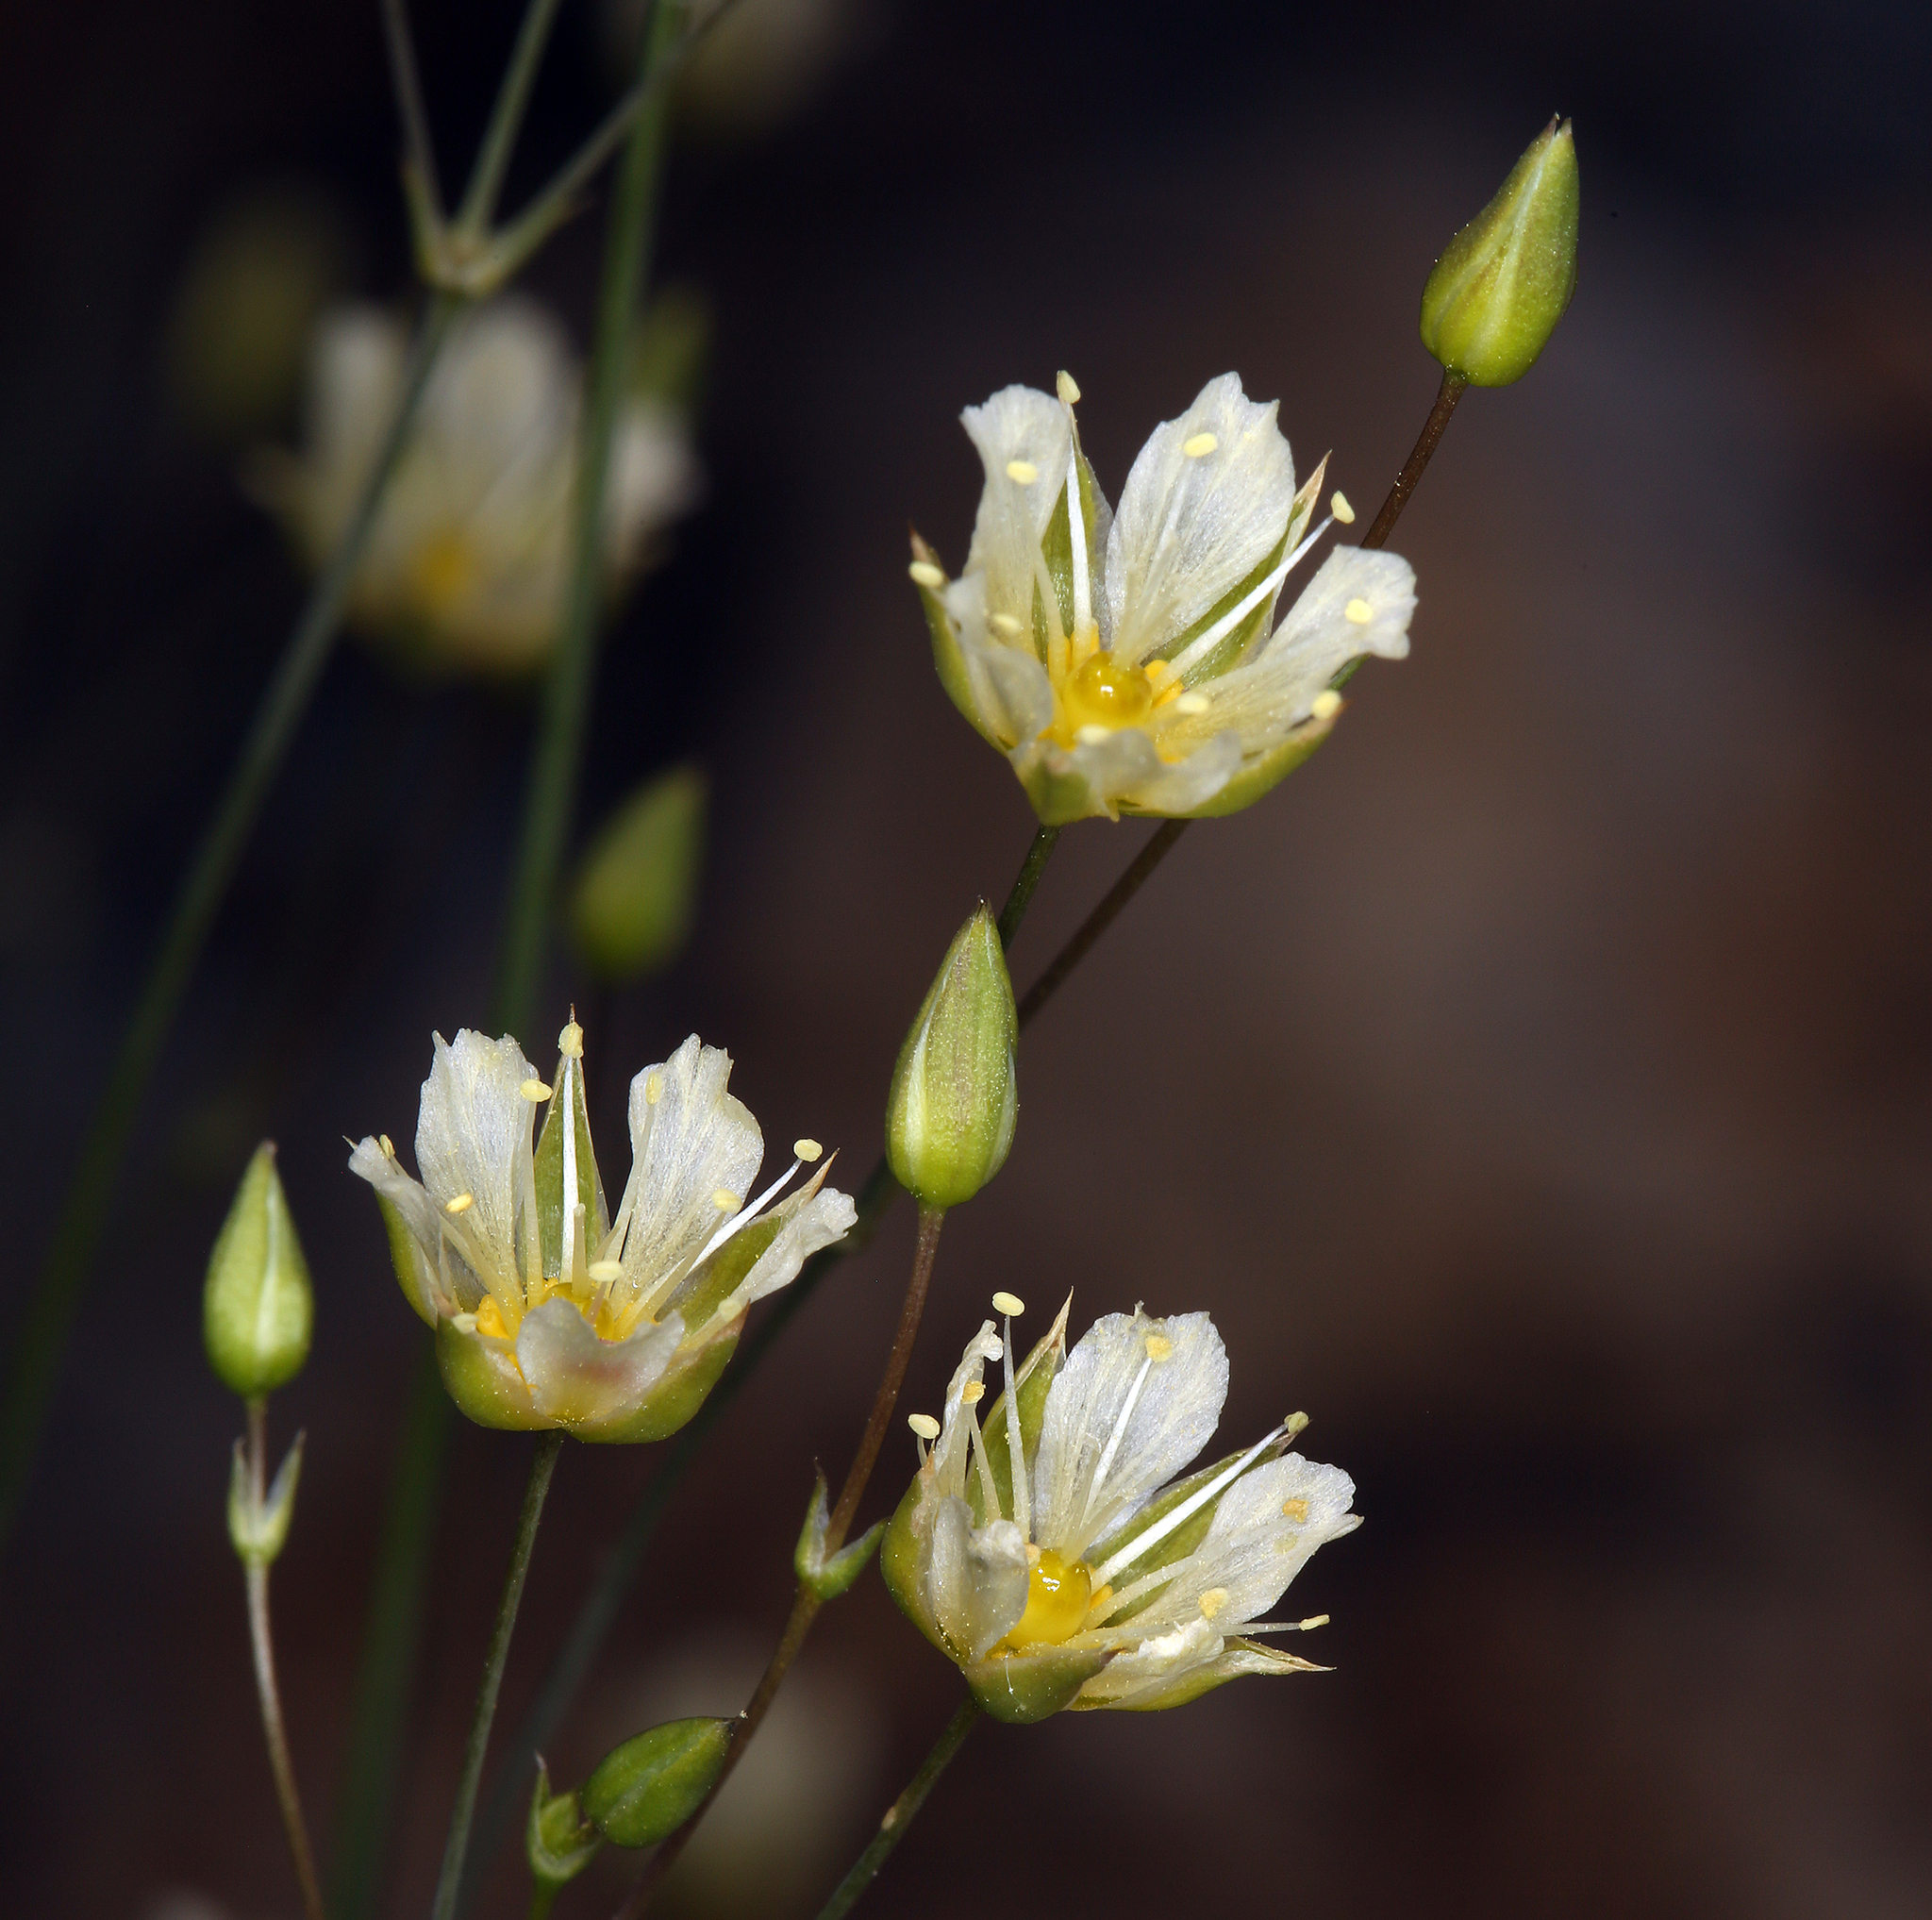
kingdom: Plantae
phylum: Tracheophyta
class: Magnoliopsida
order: Caryophyllales
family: Caryophyllaceae
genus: Eremogone
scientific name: Eremogone macradenia
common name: Mohave sandwort
